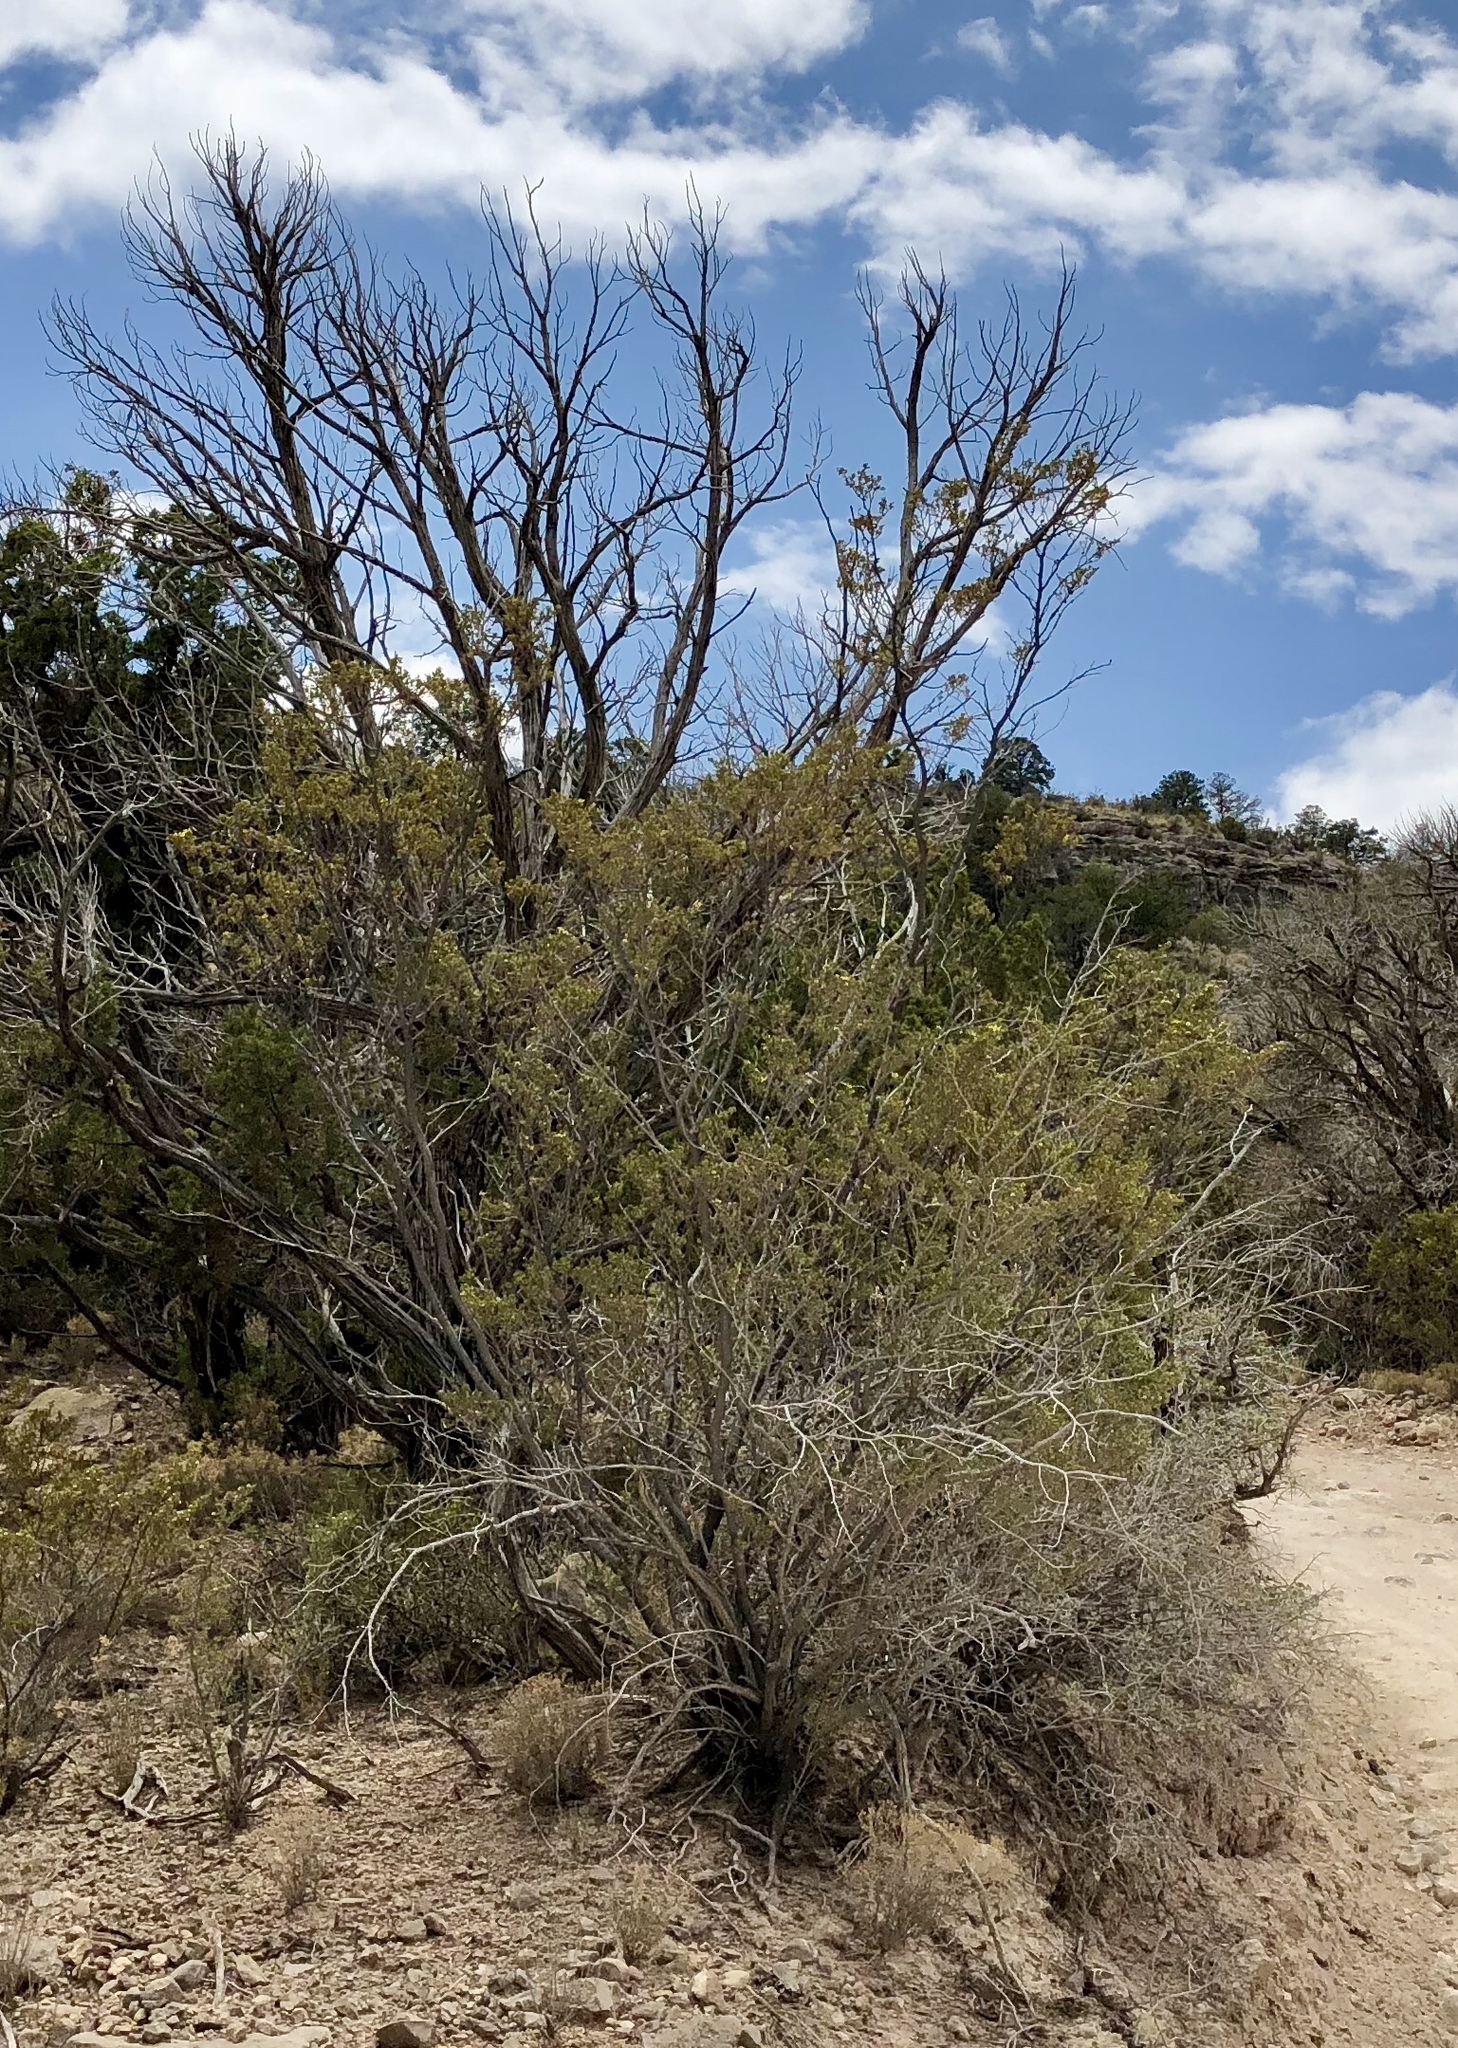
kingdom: Plantae
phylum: Tracheophyta
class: Magnoliopsida
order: Zygophyllales
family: Zygophyllaceae
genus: Larrea
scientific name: Larrea tridentata
